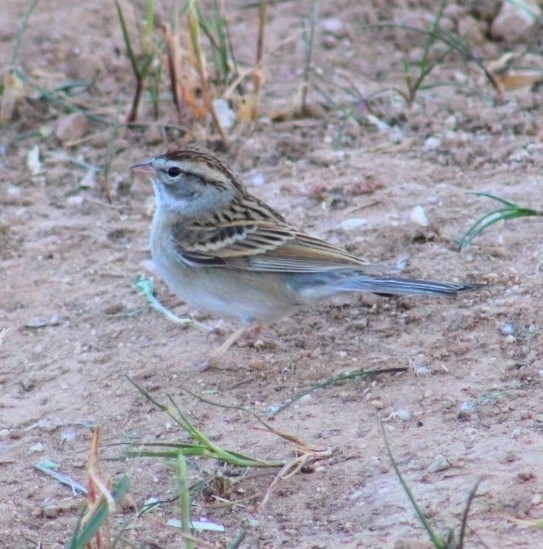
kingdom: Animalia
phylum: Chordata
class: Aves
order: Passeriformes
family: Passerellidae
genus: Spizella
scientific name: Spizella passerina
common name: Chipping sparrow
